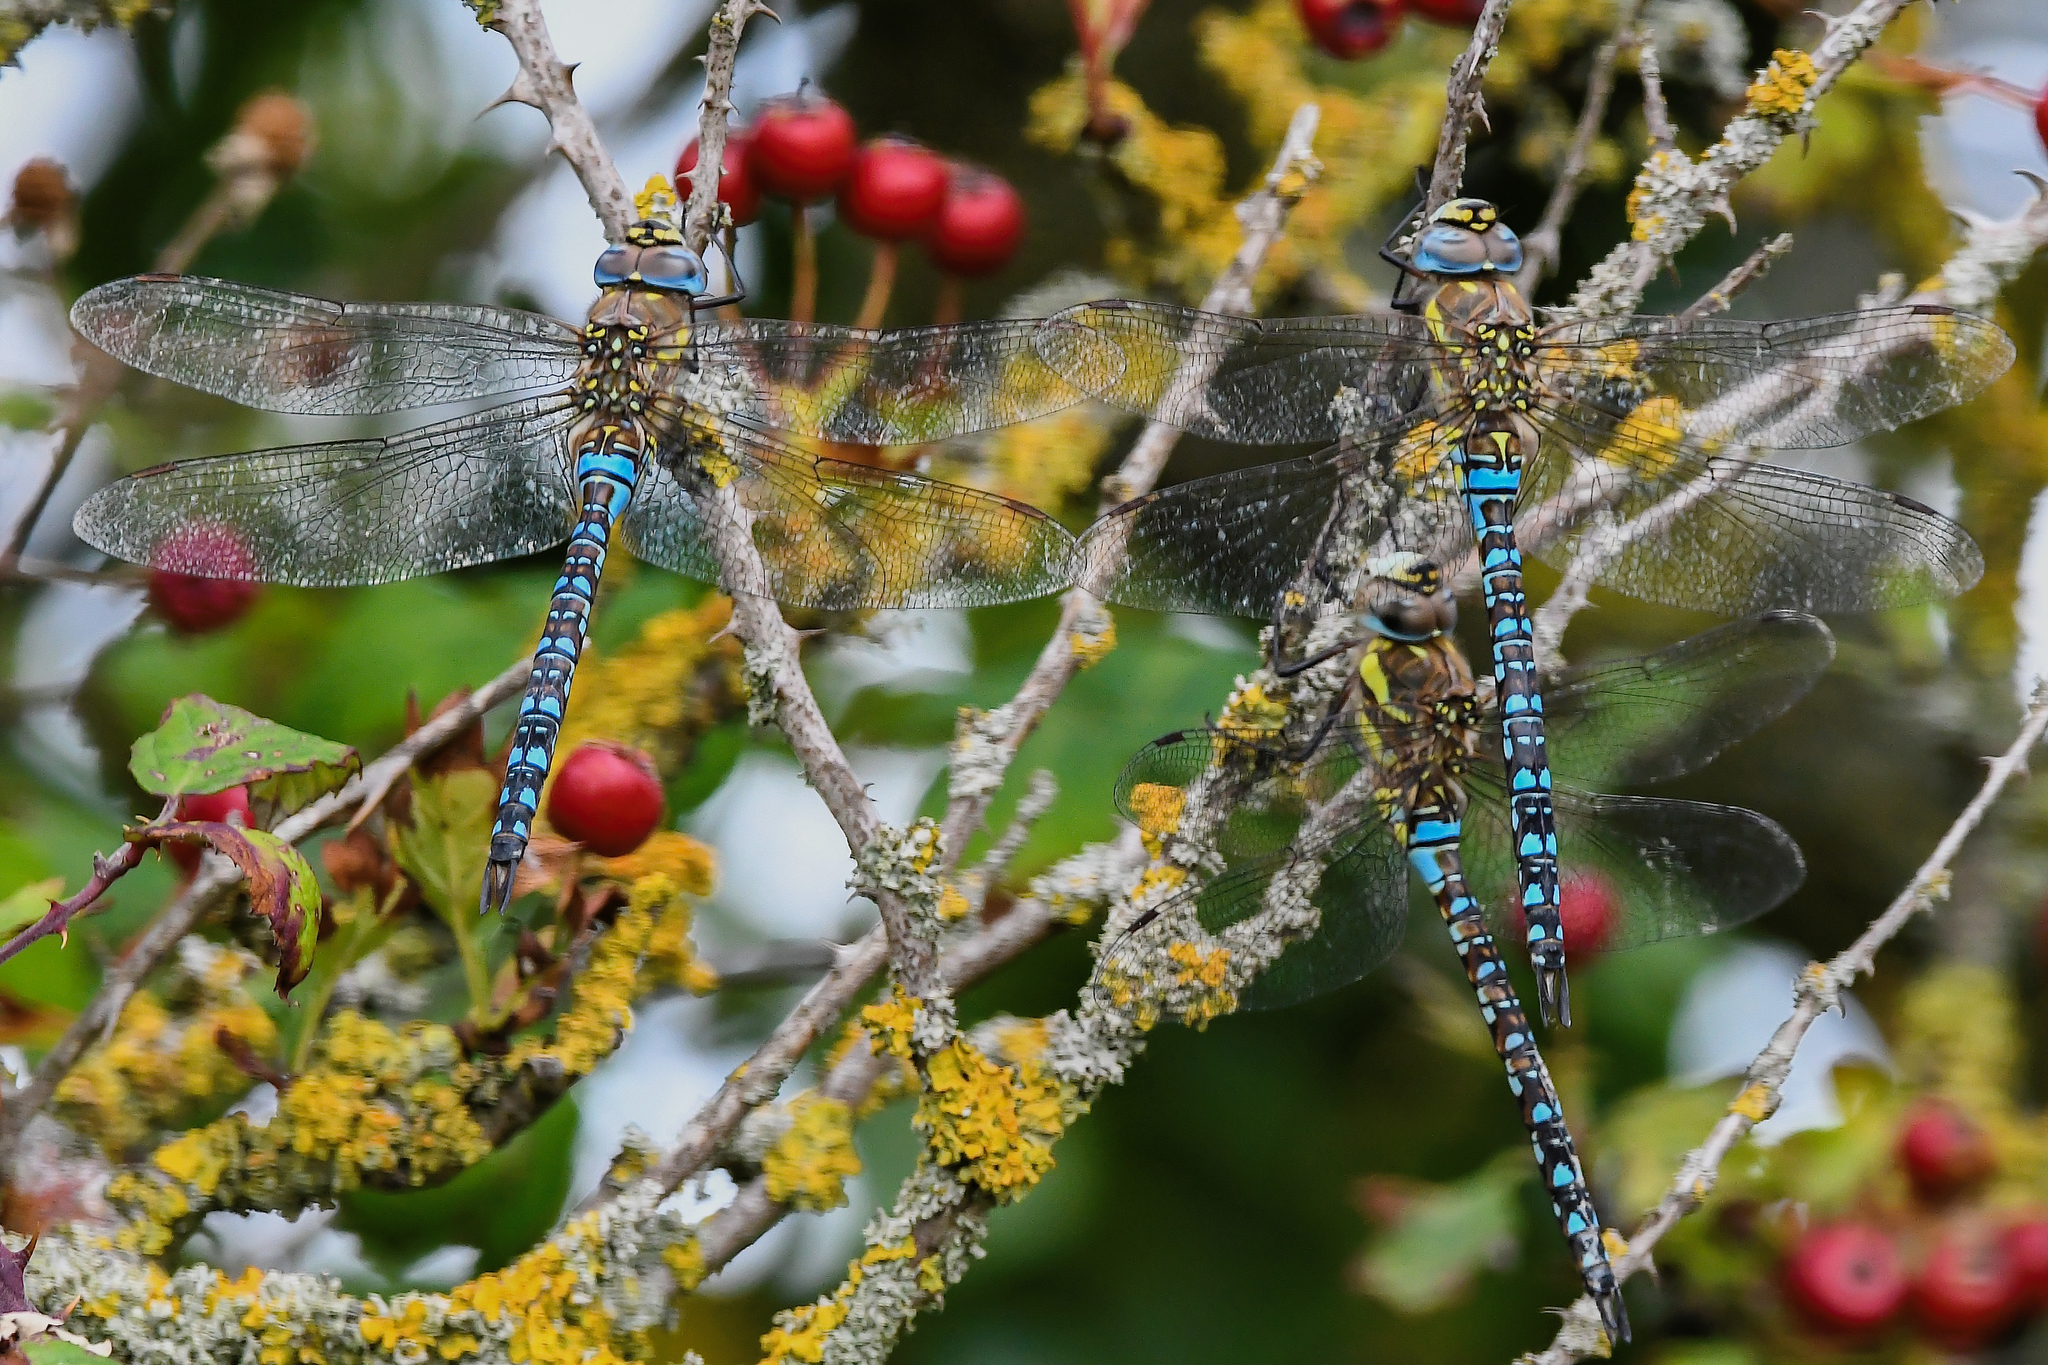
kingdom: Animalia
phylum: Arthropoda
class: Insecta
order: Odonata
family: Aeshnidae
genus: Aeshna
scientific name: Aeshna mixta
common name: Migrant hawker
